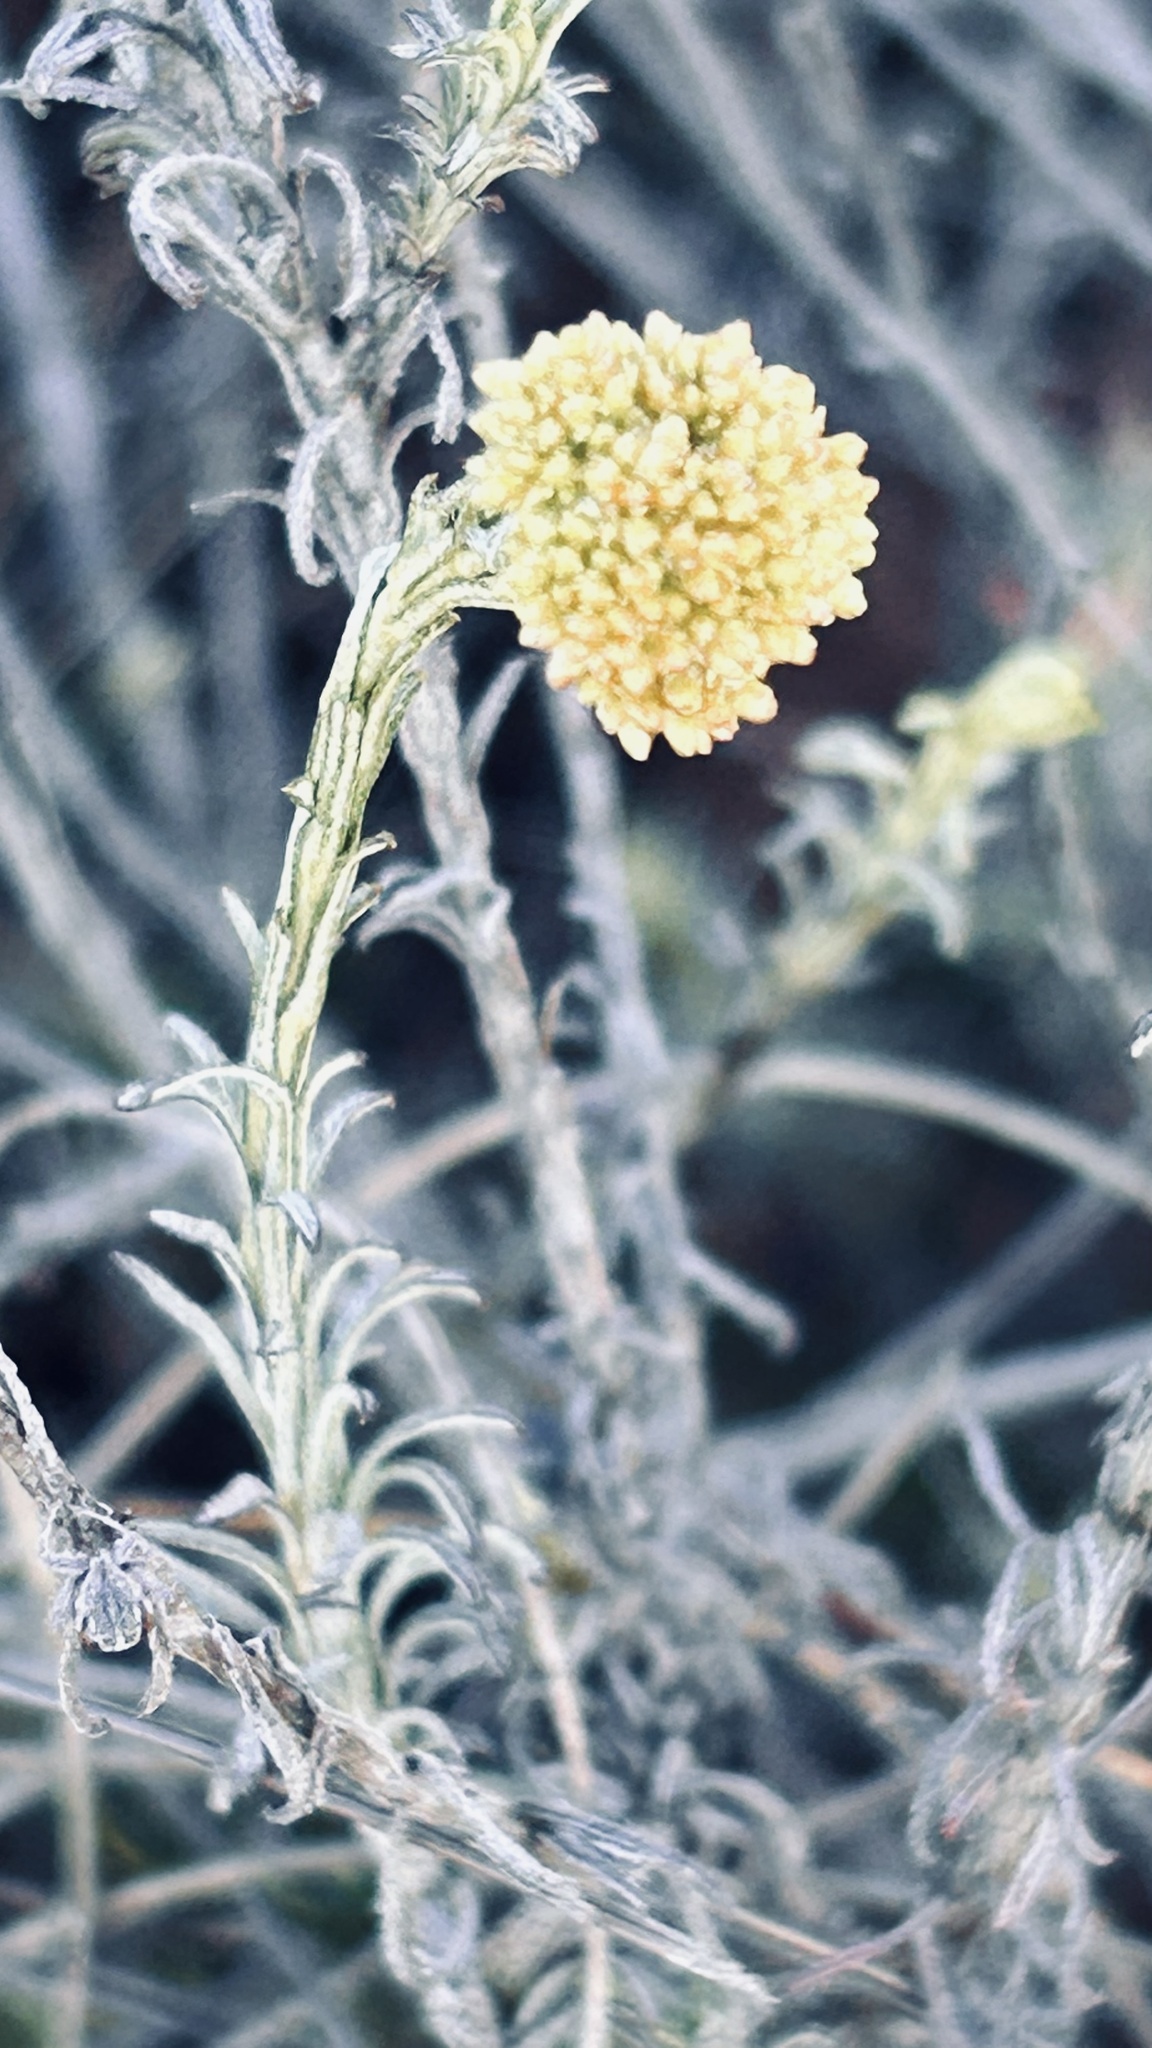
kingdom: Plantae
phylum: Tracheophyta
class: Magnoliopsida
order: Asterales
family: Asteraceae
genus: Helichrysum
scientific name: Helichrysum rutilans
